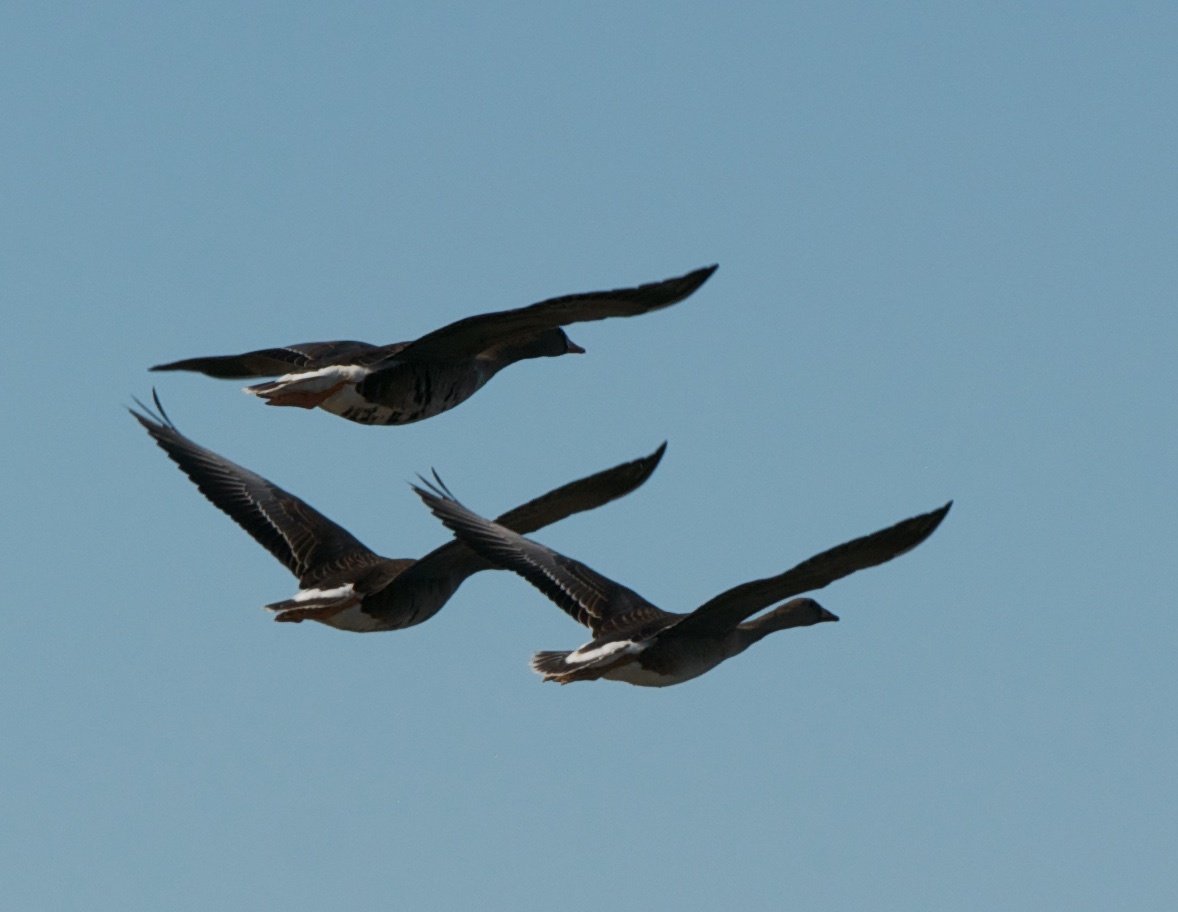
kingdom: Animalia
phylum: Chordata
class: Aves
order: Anseriformes
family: Anatidae
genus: Anser
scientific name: Anser albifrons
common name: Greater white-fronted goose
